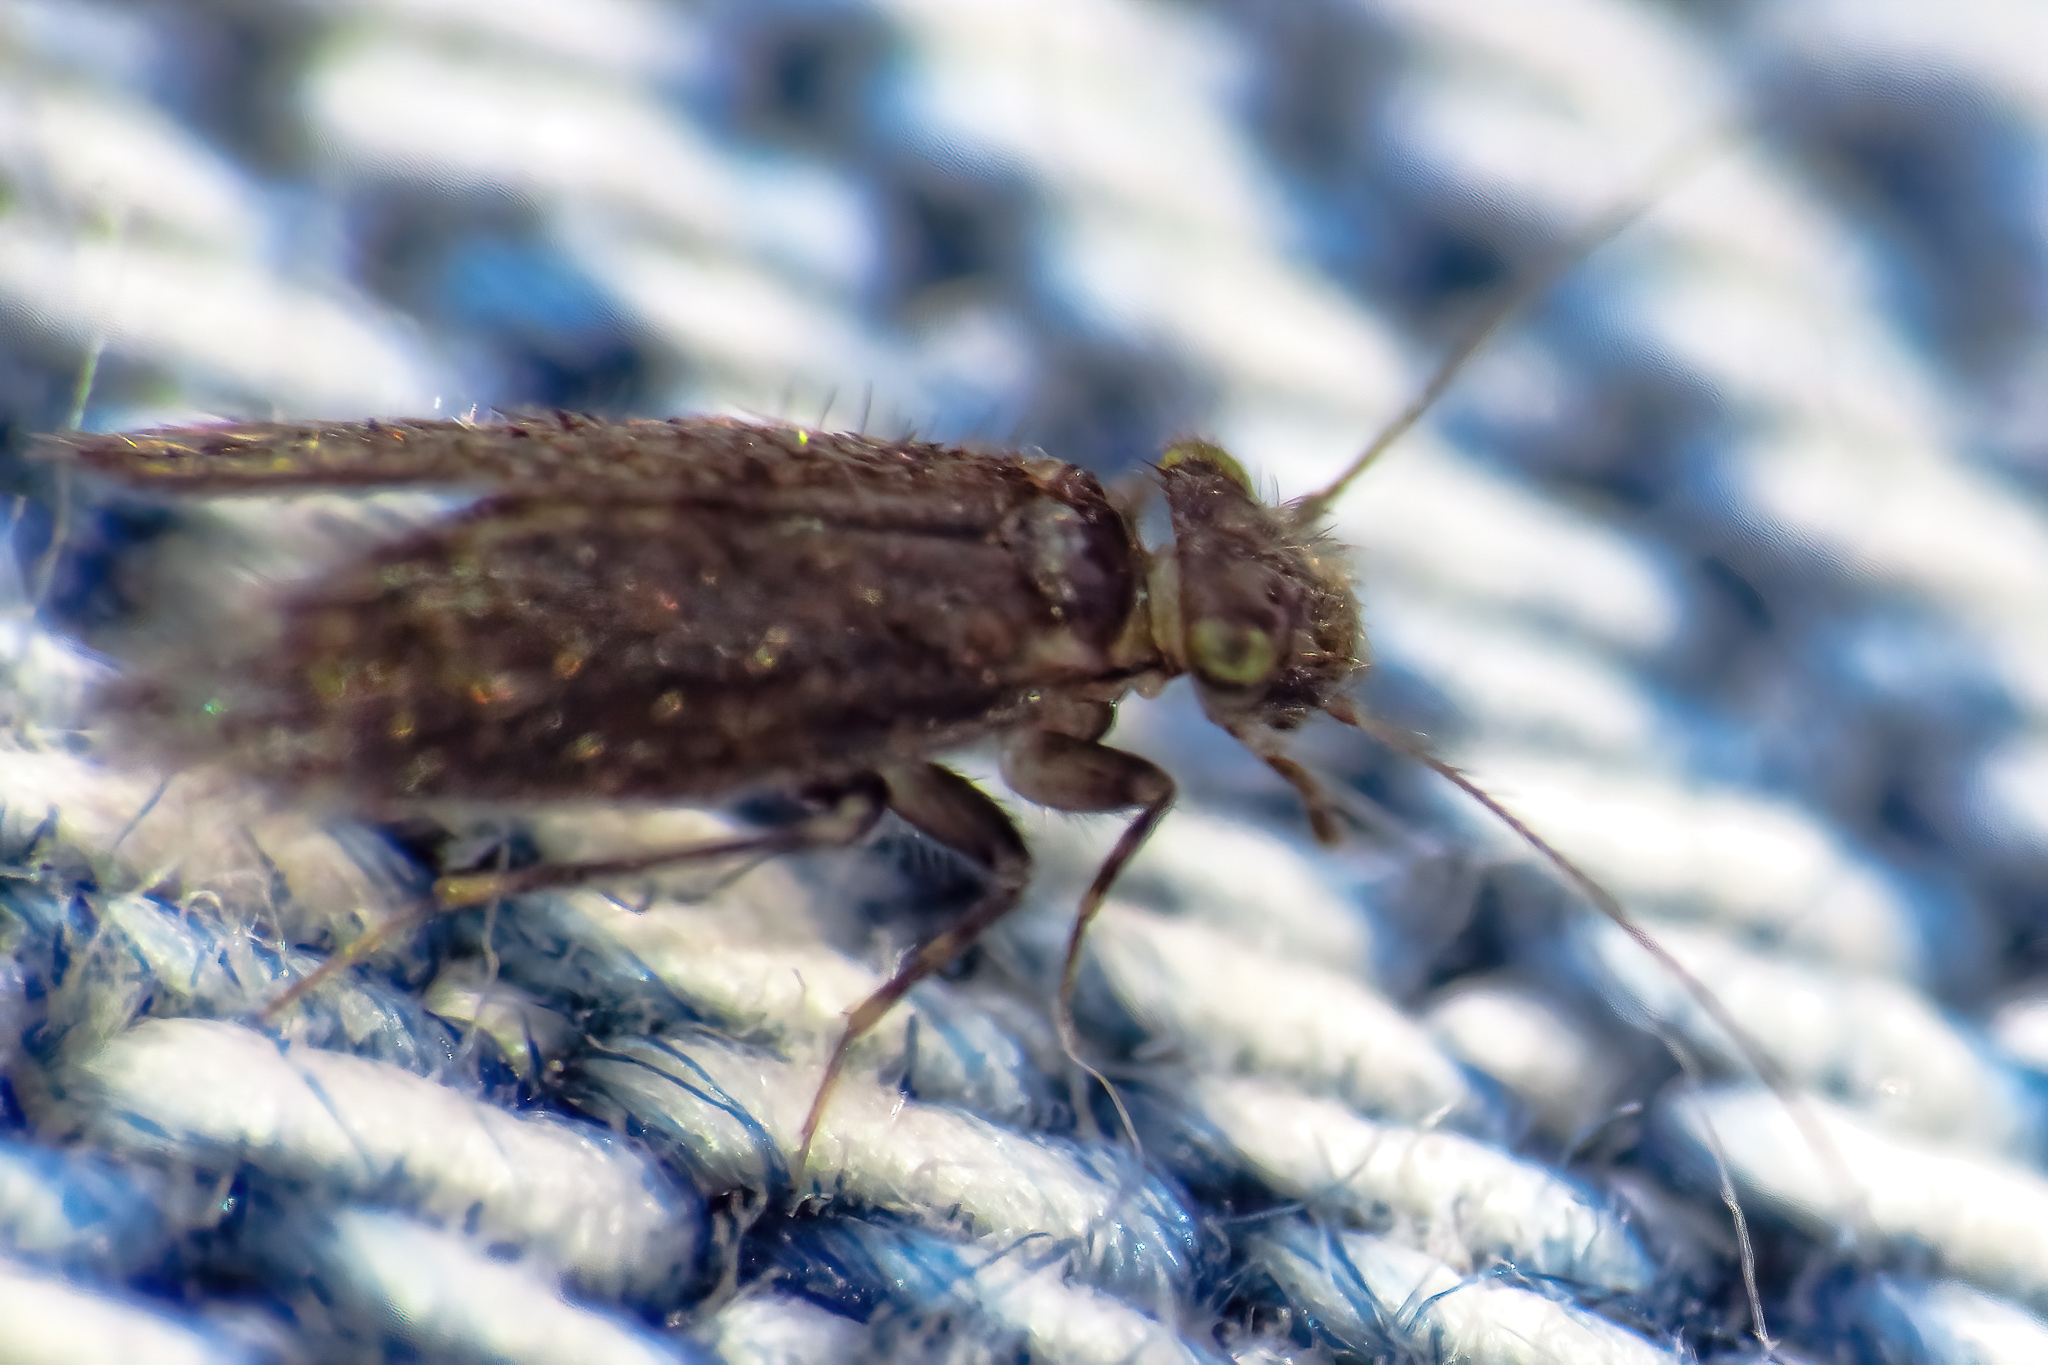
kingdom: Animalia
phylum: Arthropoda
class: Insecta
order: Psocodea
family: Lepidopsocidae
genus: Echmepteryx
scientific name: Echmepteryx hageni
